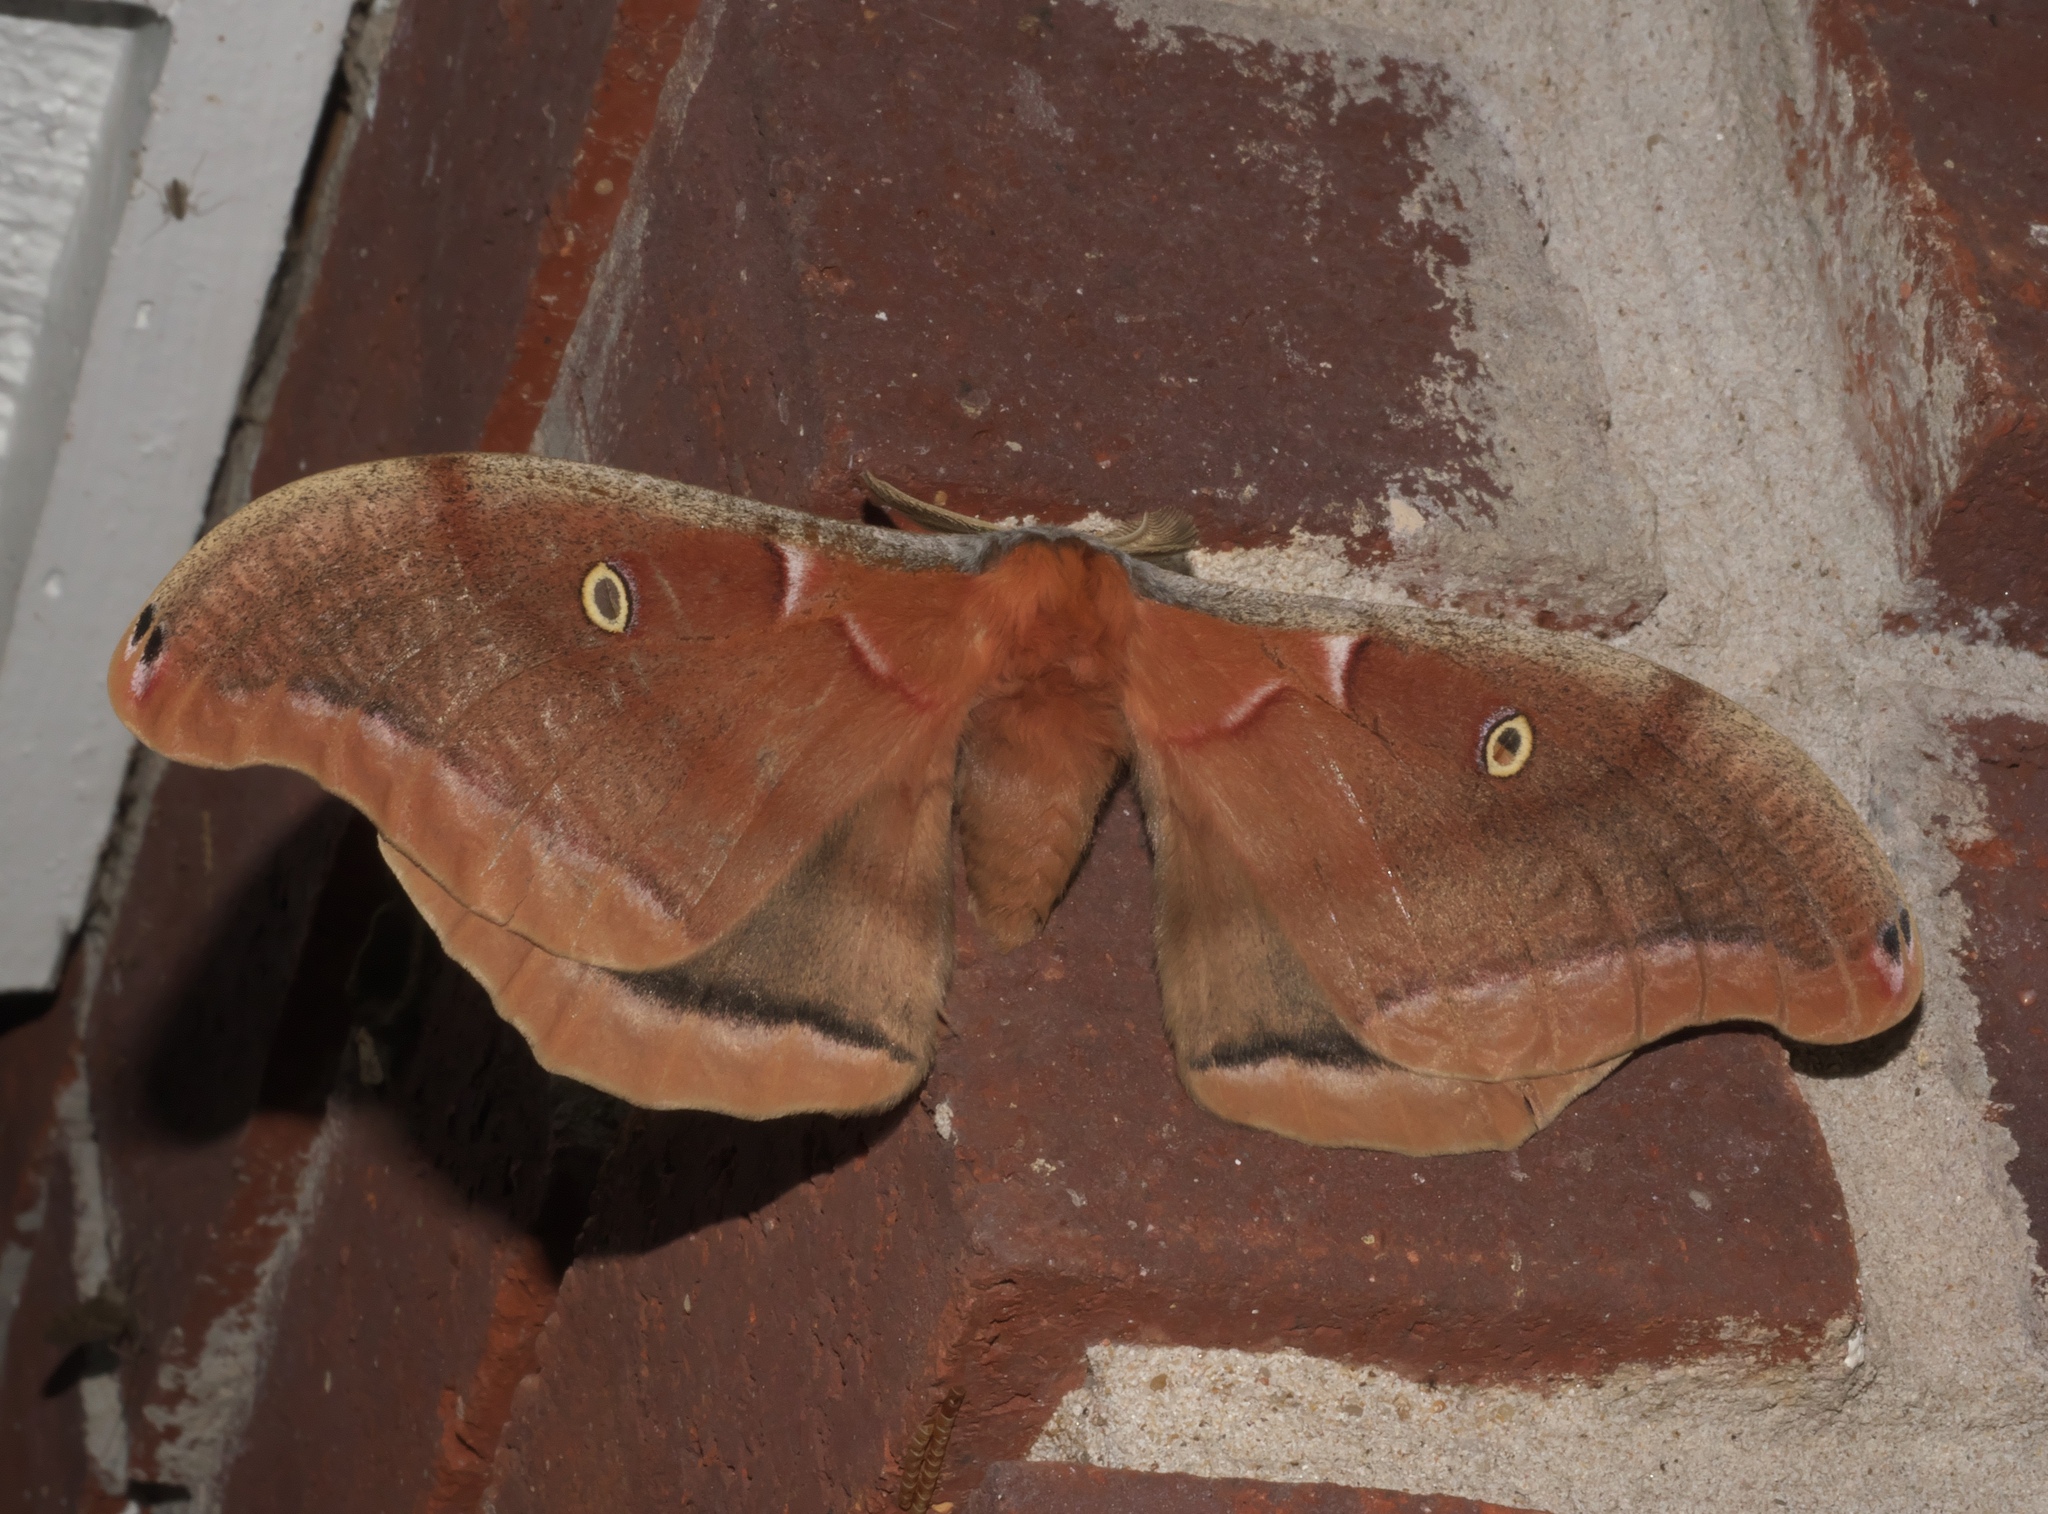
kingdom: Animalia
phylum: Arthropoda
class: Insecta
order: Lepidoptera
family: Saturniidae
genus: Antheraea
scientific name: Antheraea polyphemus
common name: Polyphemus moth
